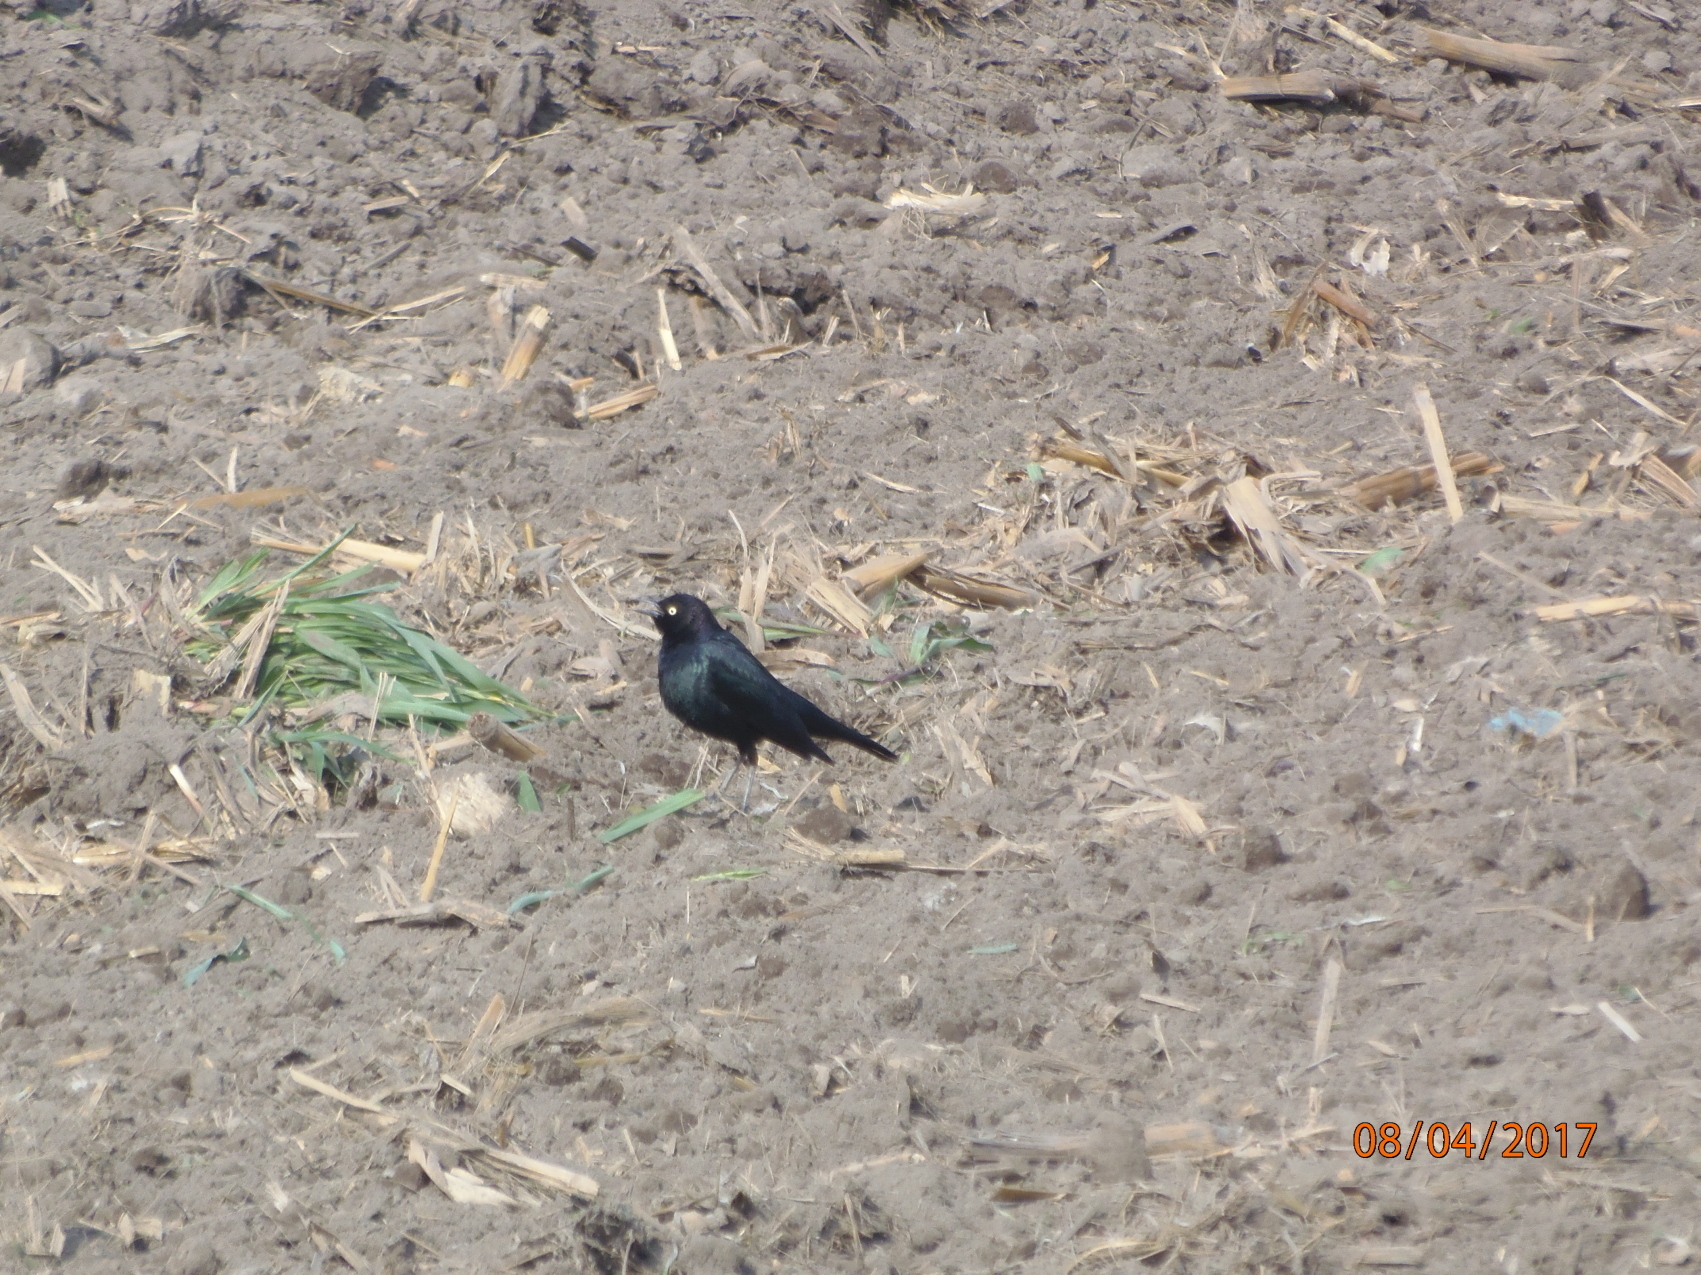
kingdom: Animalia
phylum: Chordata
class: Aves
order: Passeriformes
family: Icteridae
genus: Euphagus
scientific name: Euphagus cyanocephalus
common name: Brewer's blackbird
